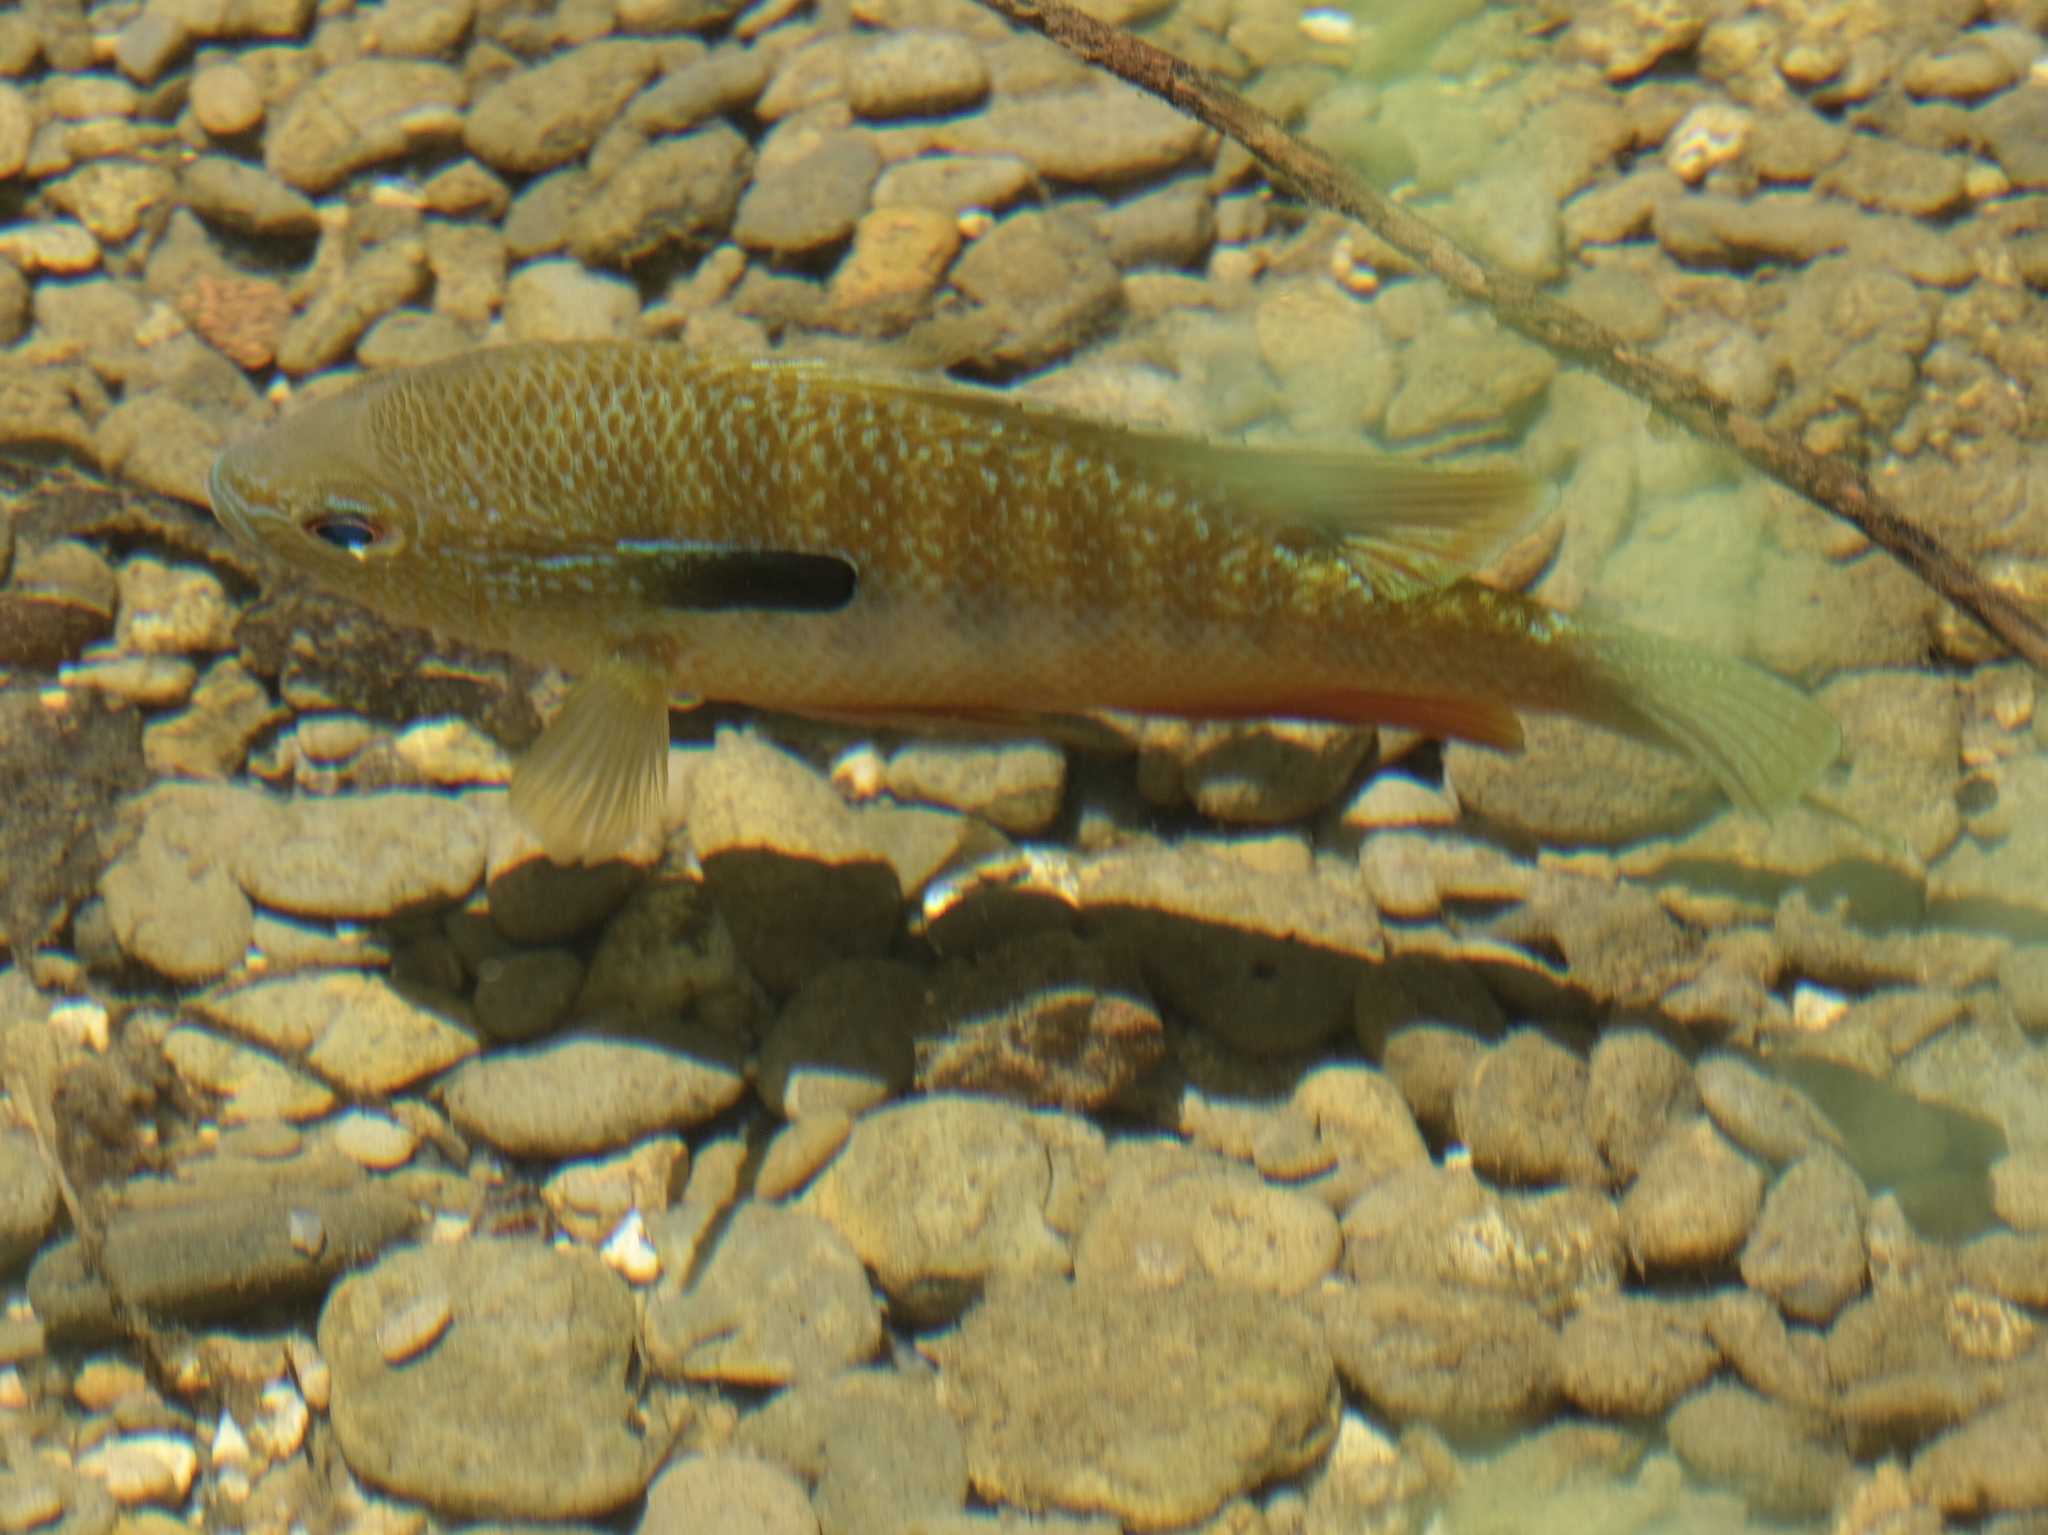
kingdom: Animalia
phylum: Chordata
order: Perciformes
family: Centrarchidae
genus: Lepomis
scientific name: Lepomis megalotis
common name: Longear sunfish
